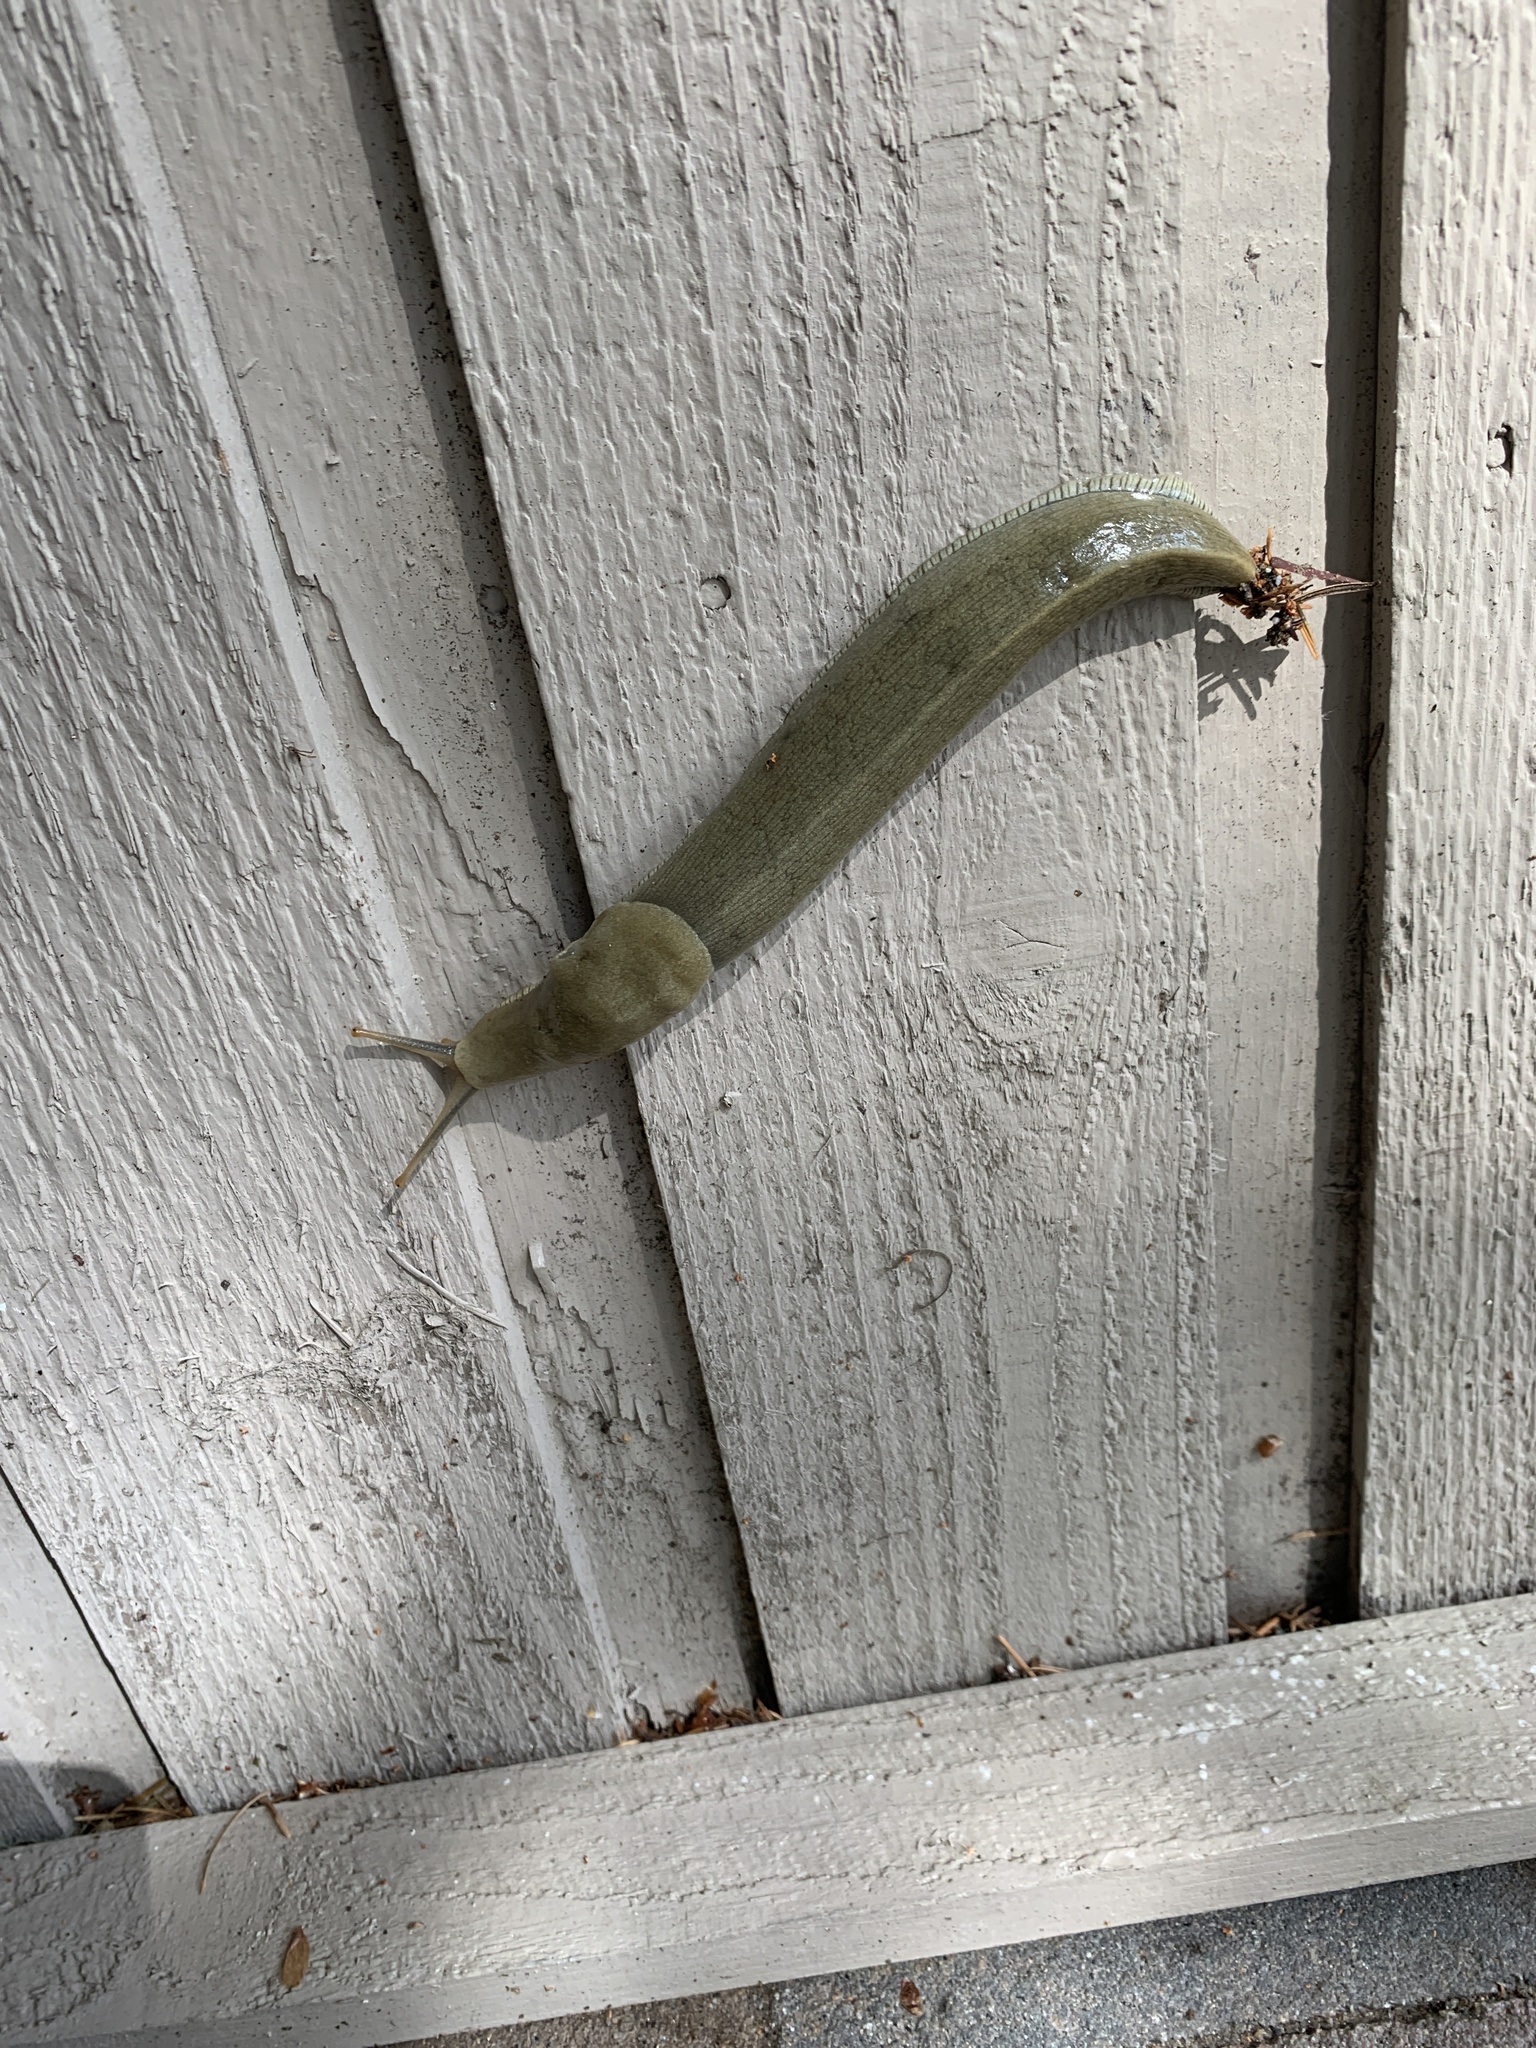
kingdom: Animalia
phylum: Mollusca
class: Gastropoda
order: Stylommatophora
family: Ariolimacidae
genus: Ariolimax
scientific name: Ariolimax columbianus
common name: Pacific banana slug
